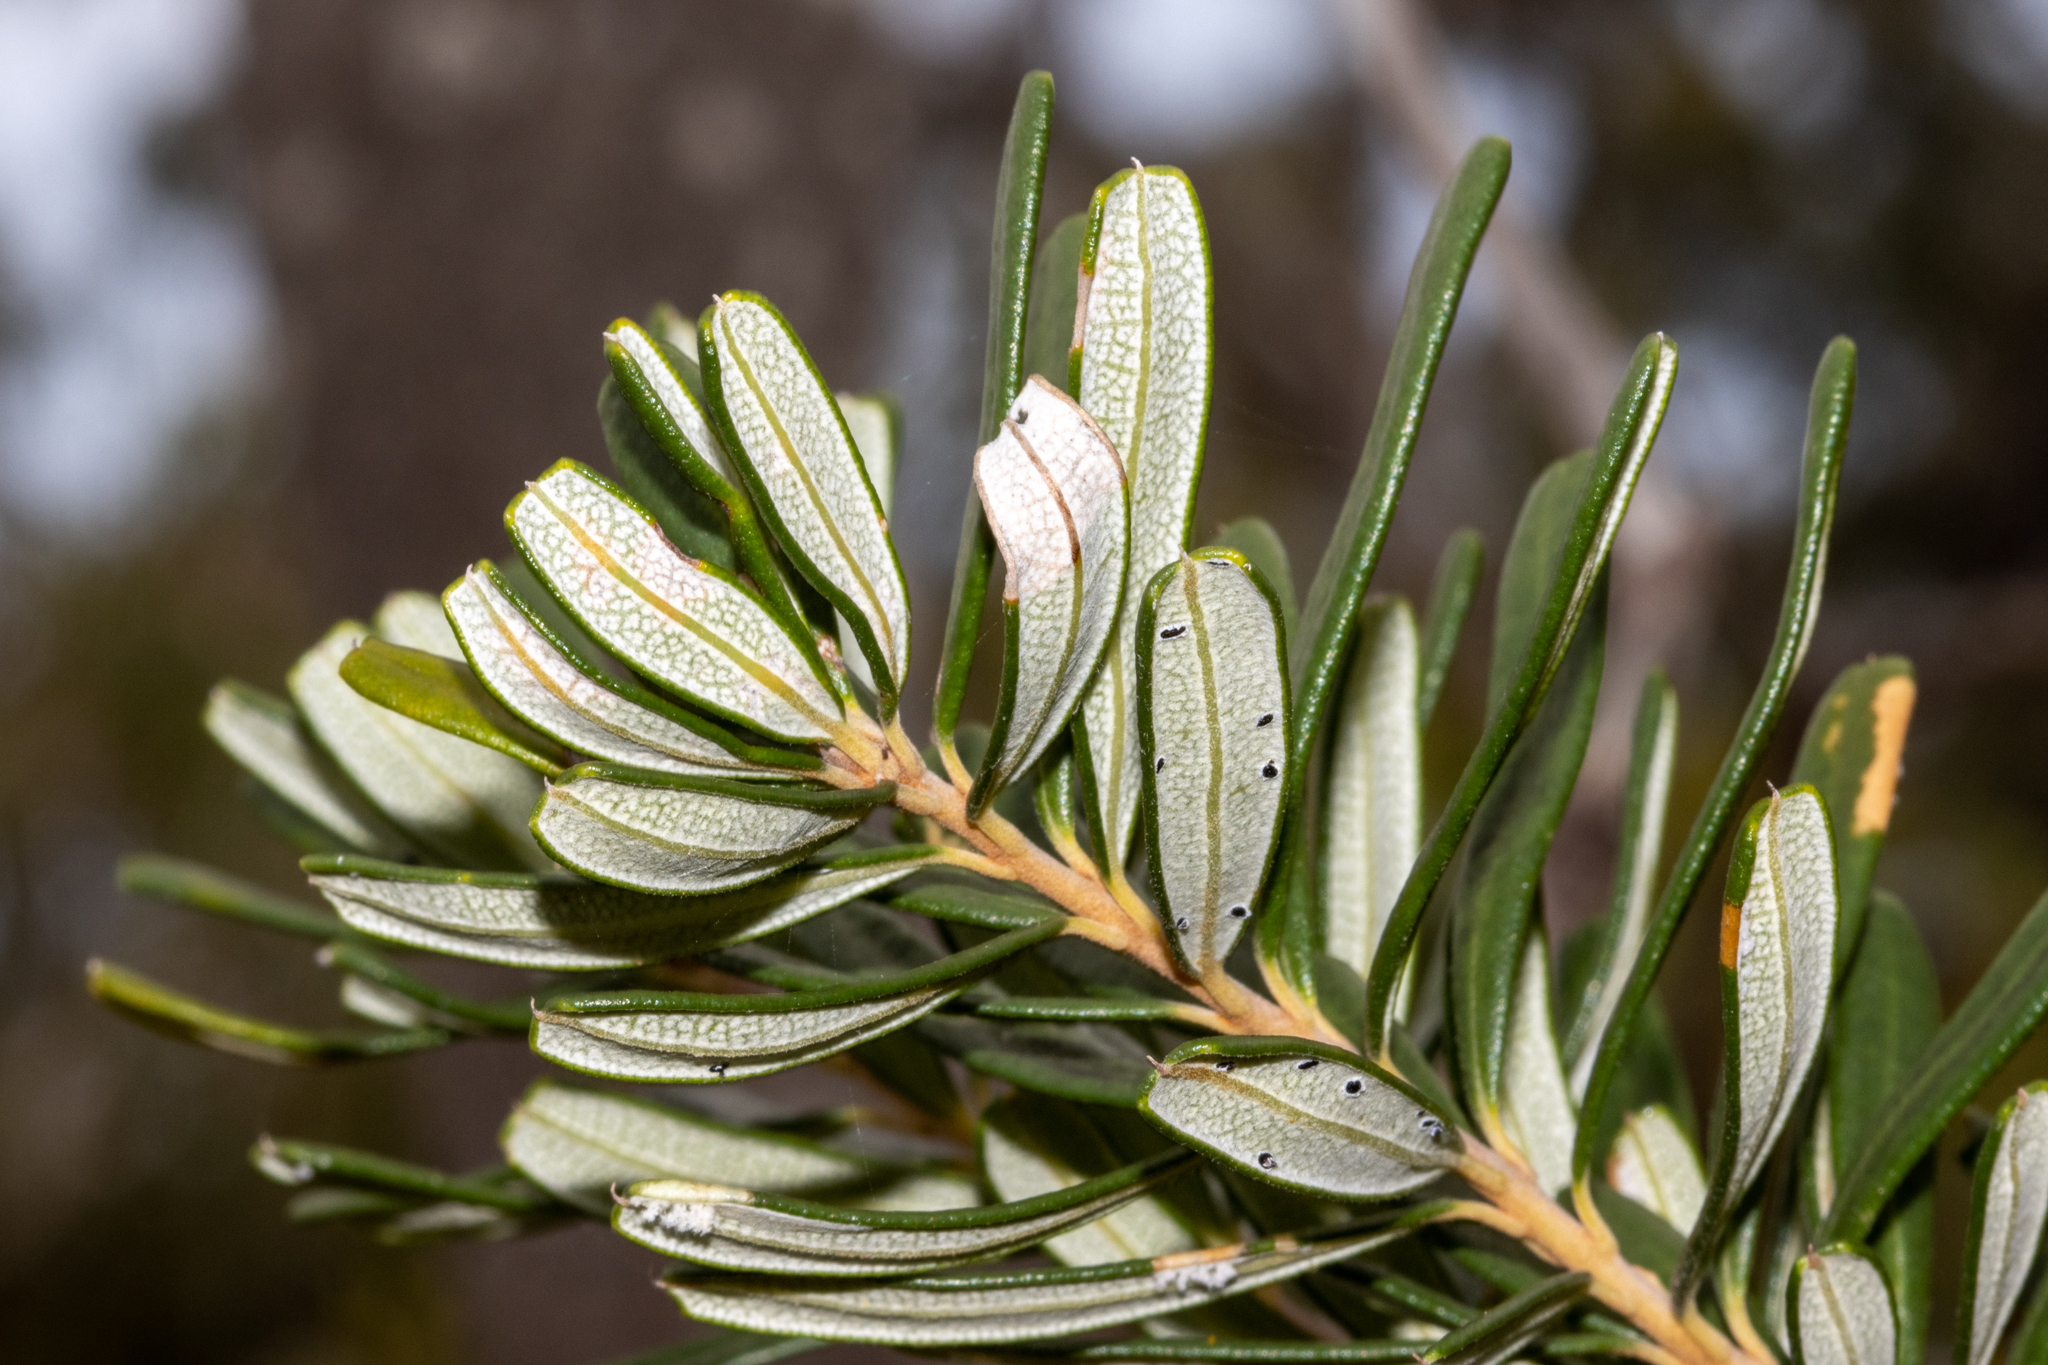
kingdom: Plantae
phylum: Tracheophyta
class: Magnoliopsida
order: Proteales
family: Proteaceae
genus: Banksia
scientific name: Banksia marginata
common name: Silver banksia
